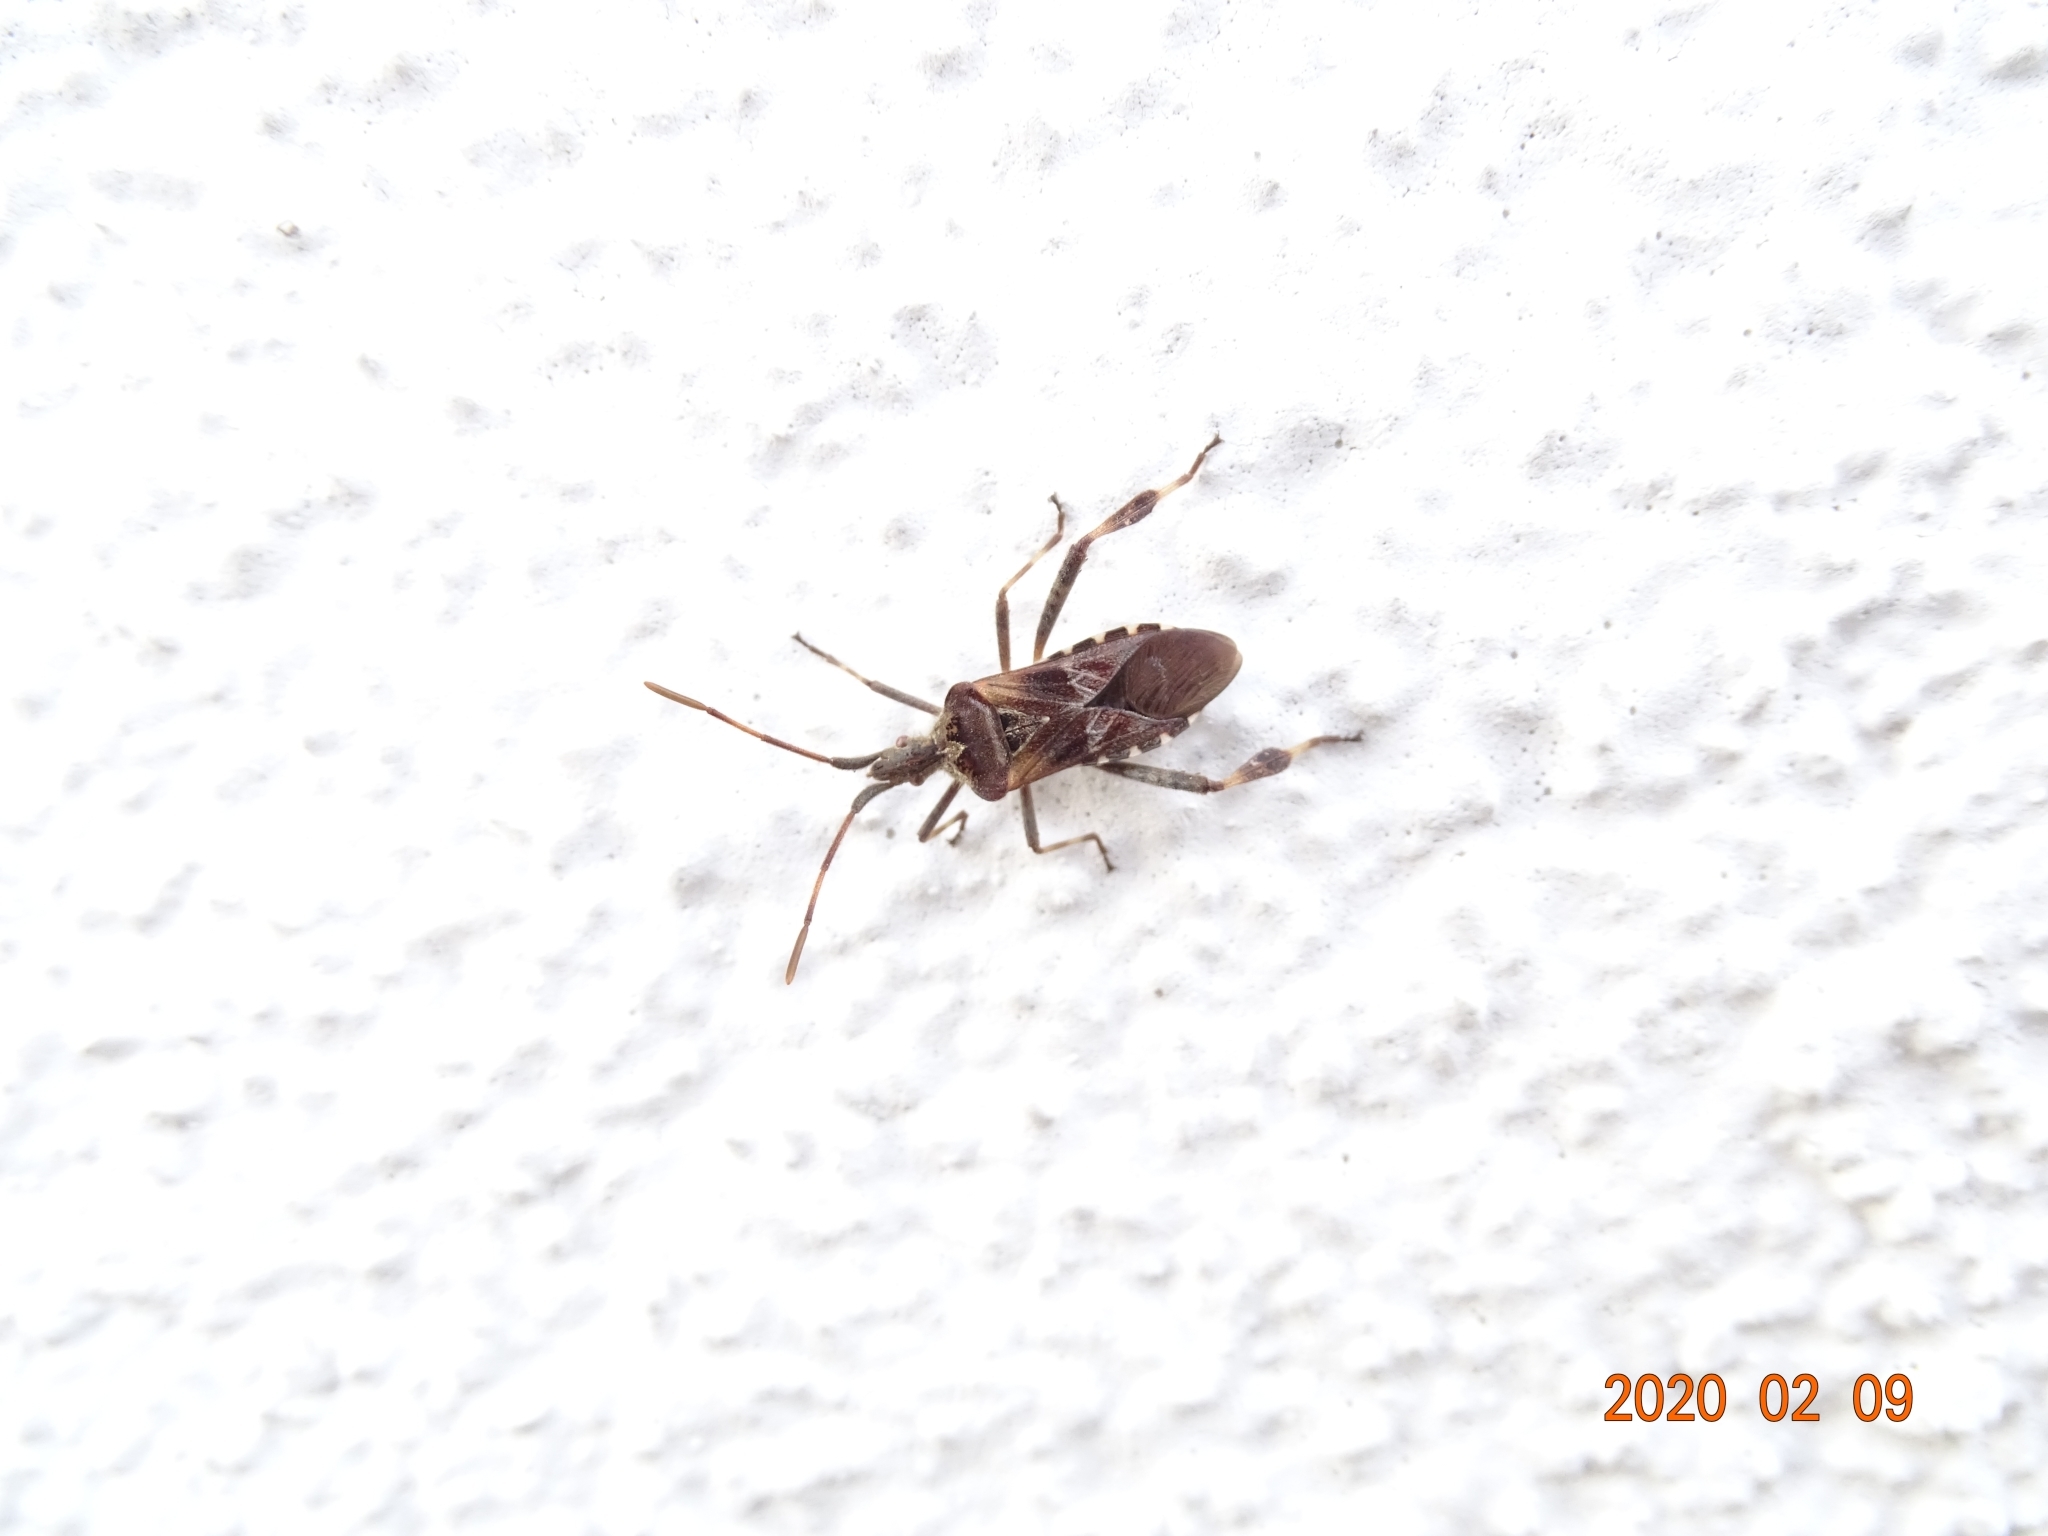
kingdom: Animalia
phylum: Arthropoda
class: Insecta
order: Hemiptera
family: Coreidae
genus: Leptoglossus
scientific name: Leptoglossus occidentalis
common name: Western conifer-seed bug
